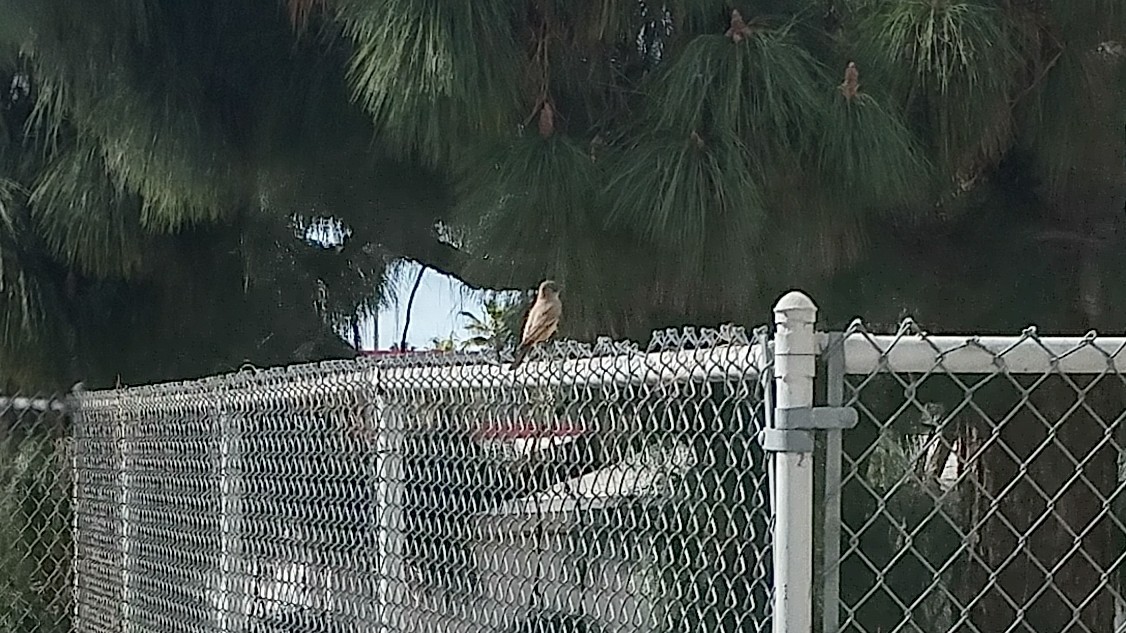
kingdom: Animalia
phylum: Chordata
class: Aves
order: Passeriformes
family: Tyrannidae
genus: Sayornis
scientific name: Sayornis saya
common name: Say's phoebe
